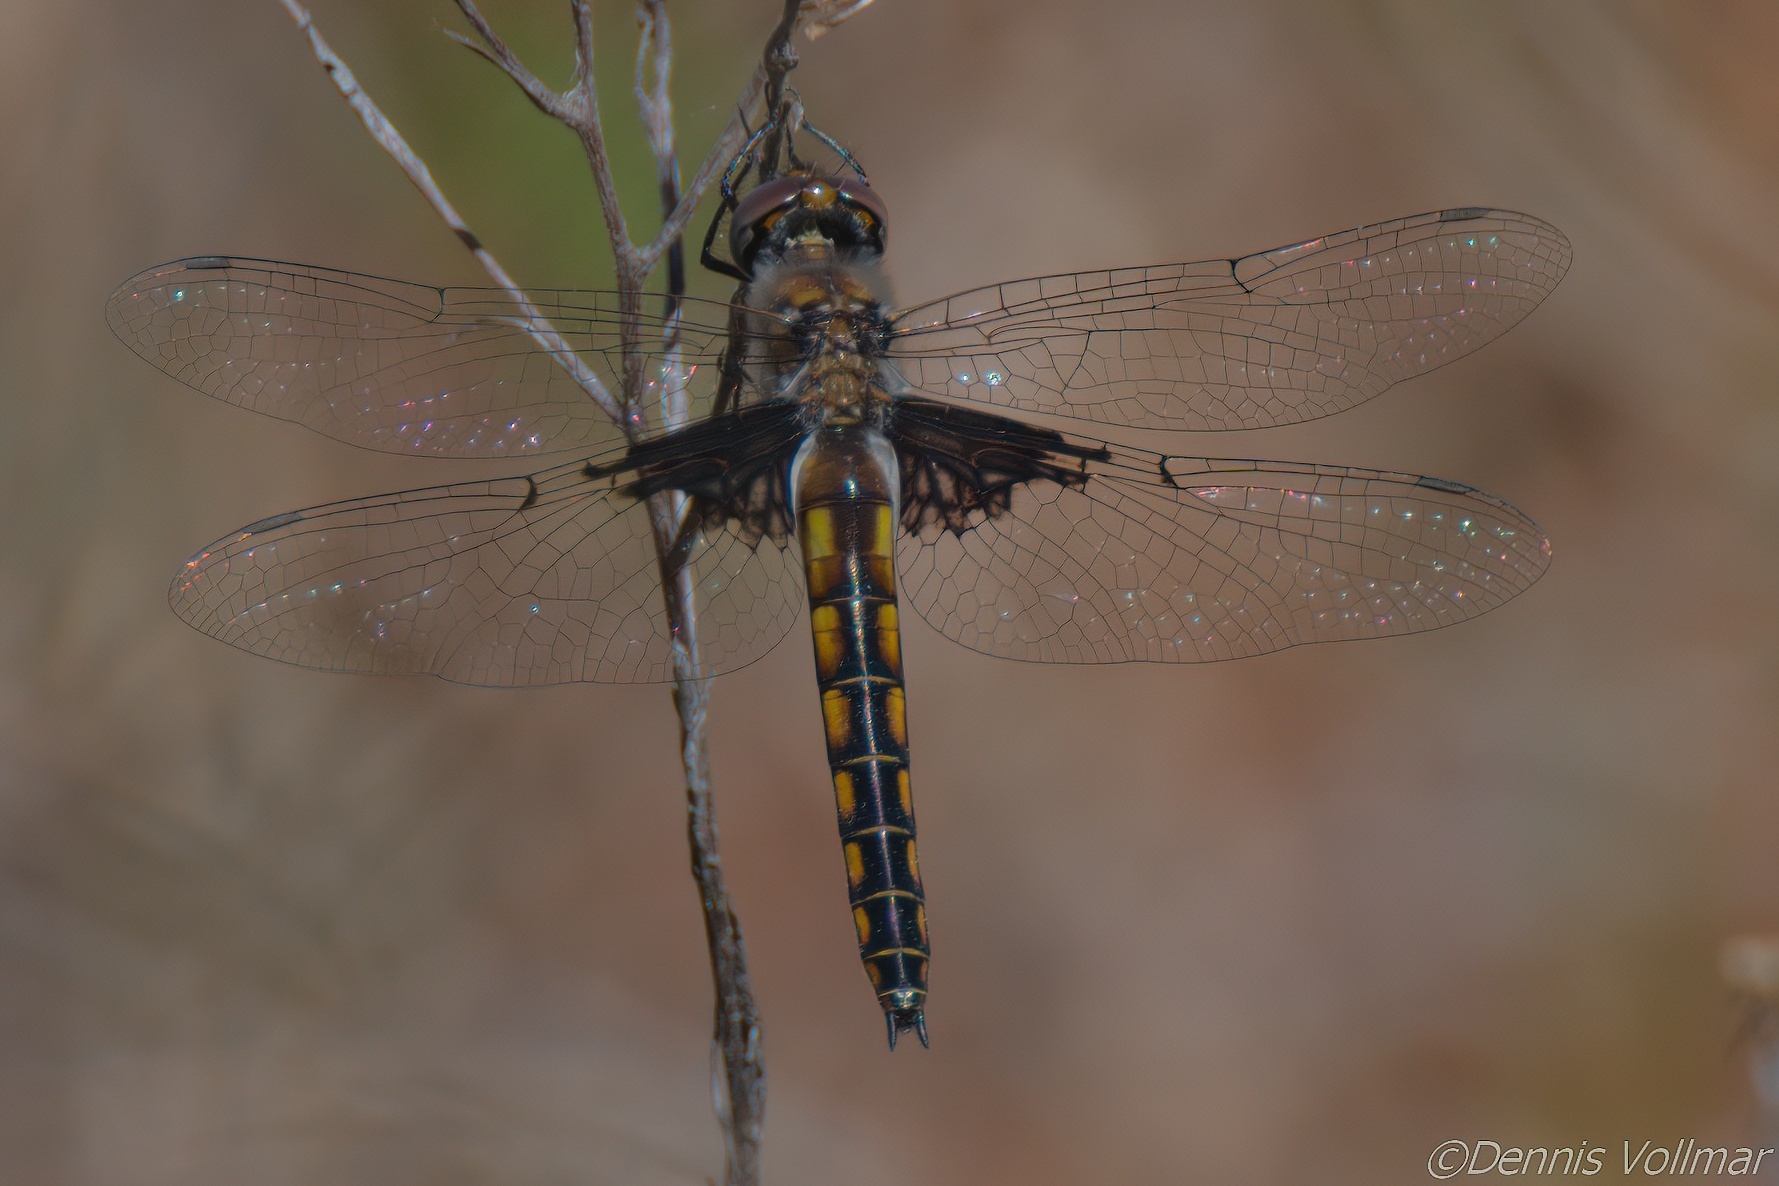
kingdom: Animalia
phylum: Arthropoda
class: Insecta
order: Odonata
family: Corduliidae
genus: Epitheca
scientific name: Epitheca cynosura
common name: Common baskettail
